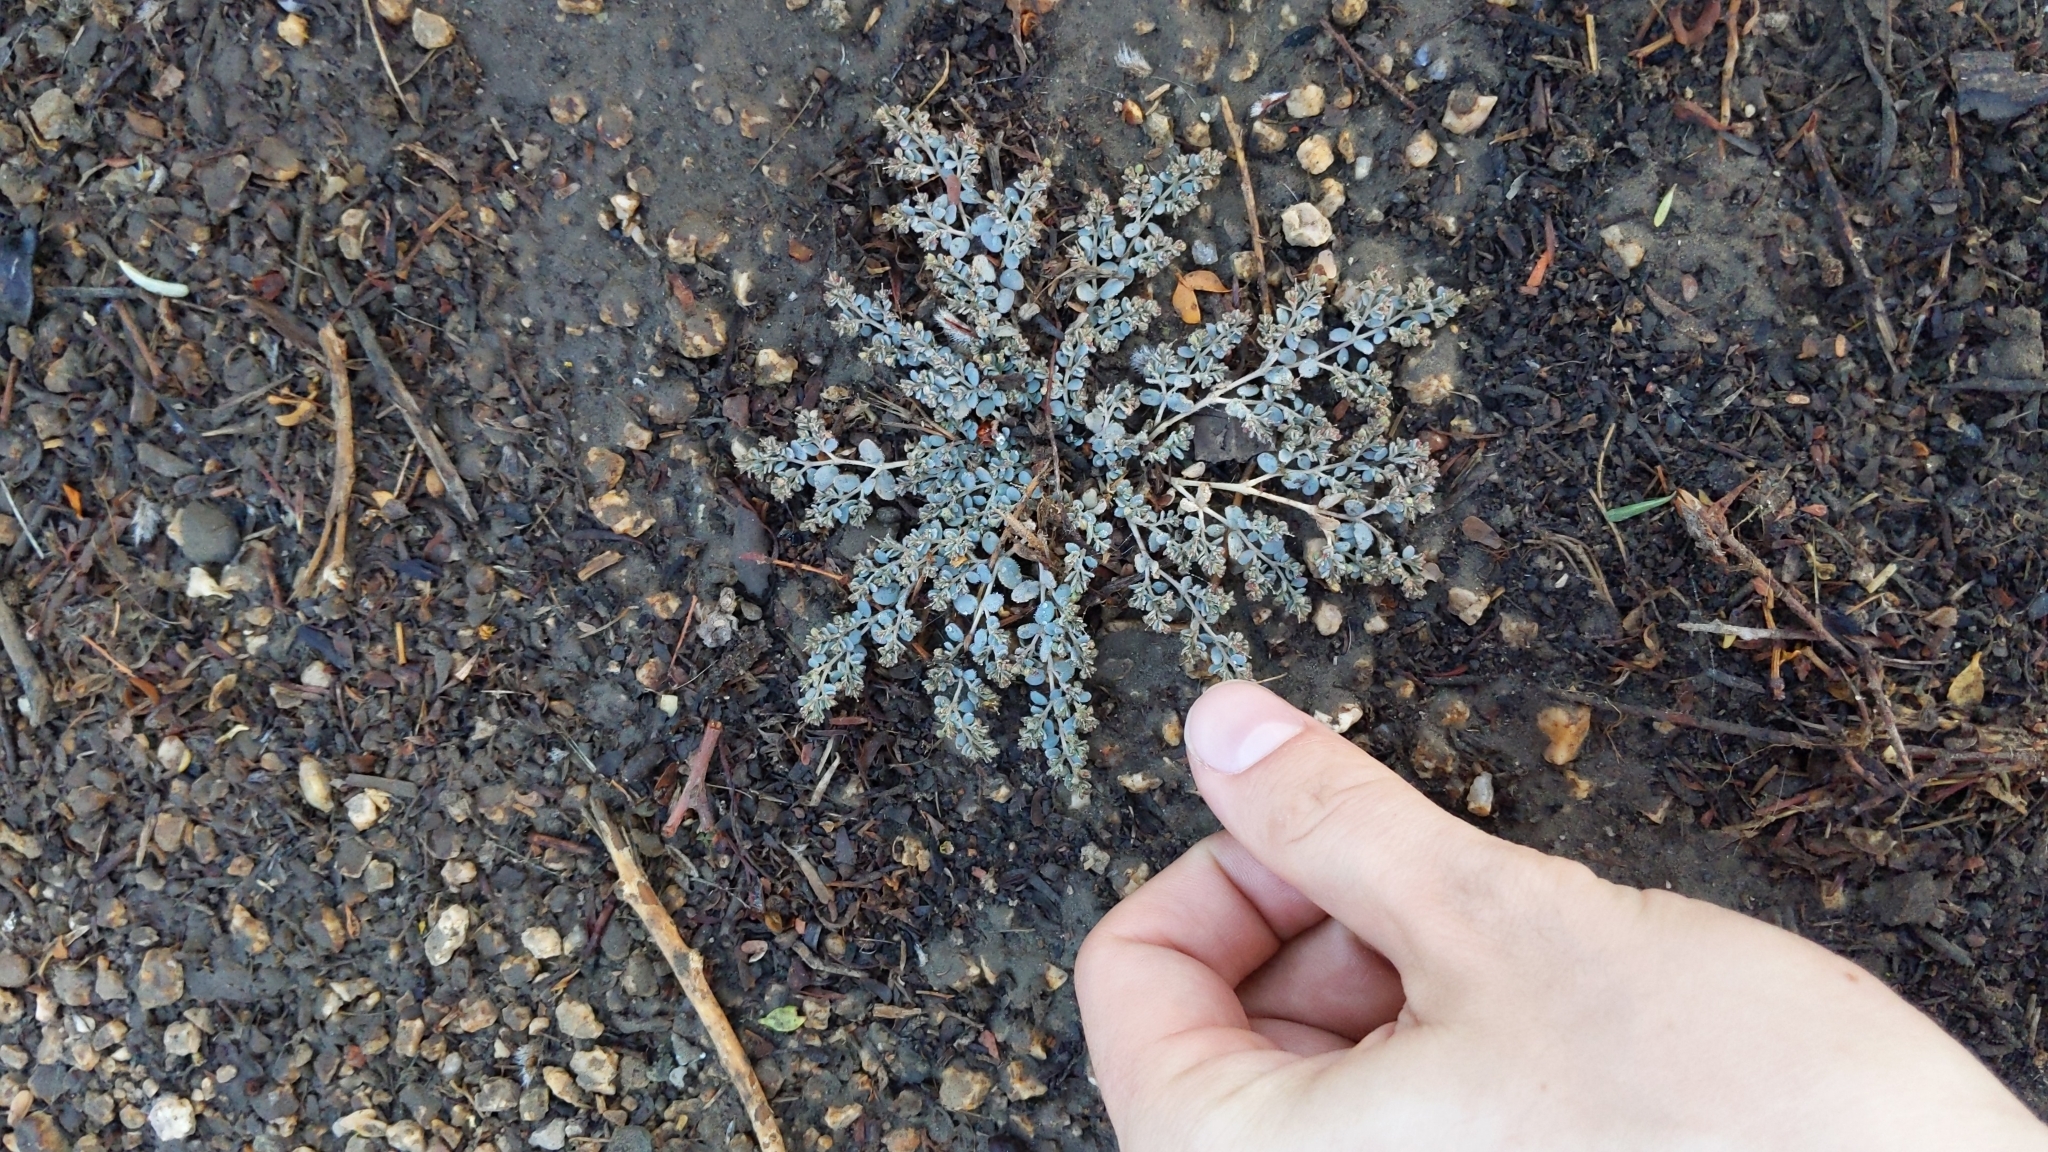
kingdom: Plantae
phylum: Tracheophyta
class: Magnoliopsida
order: Malpighiales
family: Euphorbiaceae
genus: Euphorbia
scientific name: Euphorbia micromera
